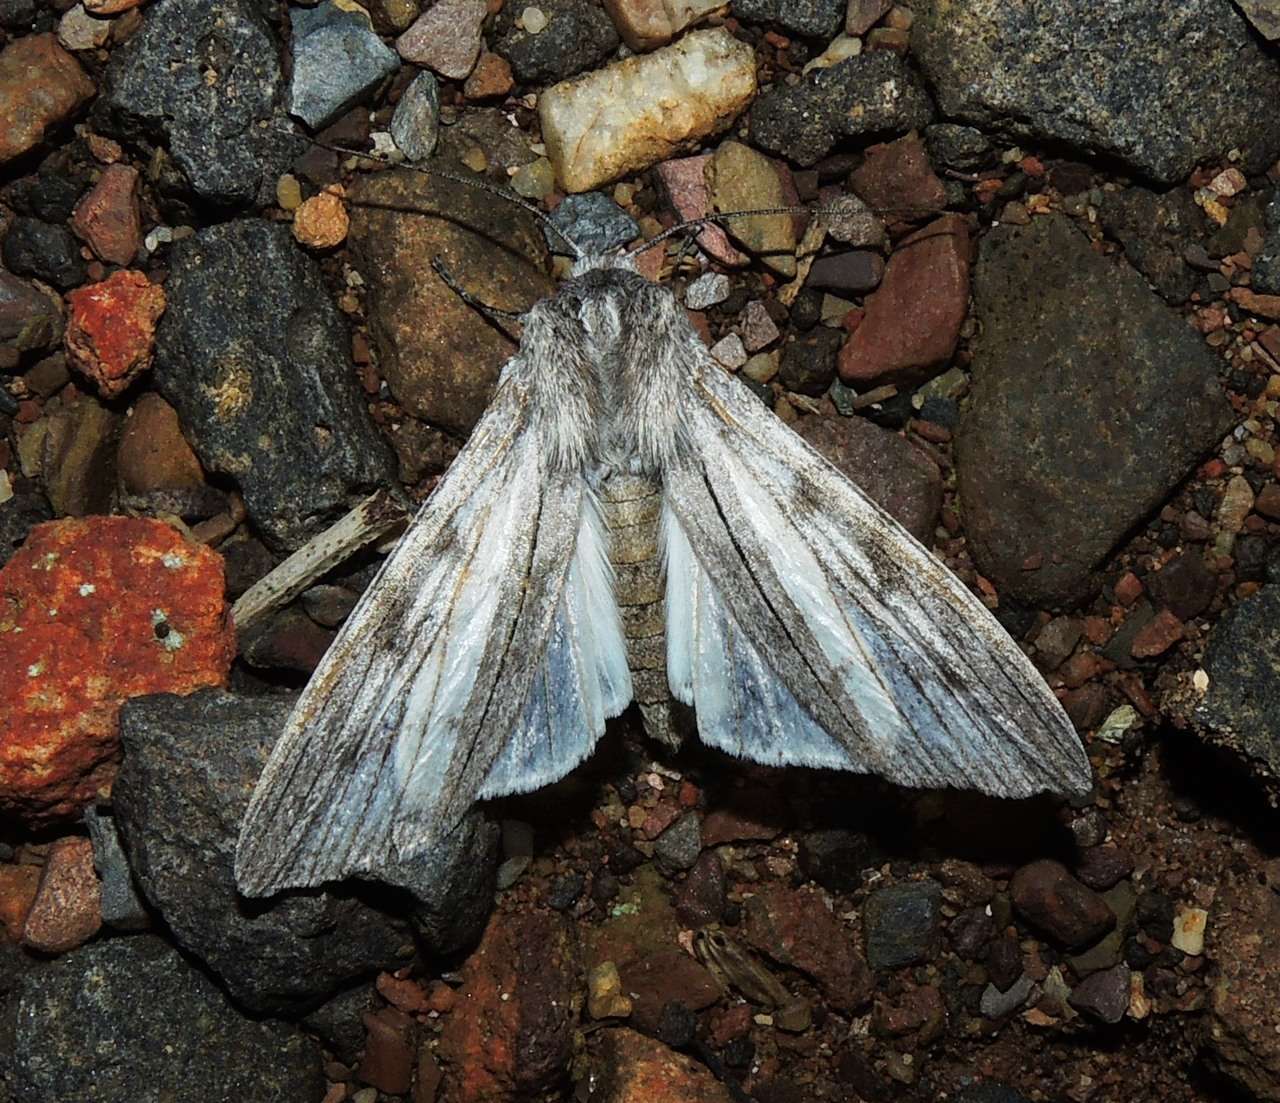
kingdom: Animalia
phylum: Arthropoda
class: Insecta
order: Lepidoptera
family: Geometridae
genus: Capusa
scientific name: Capusa cuculloides
